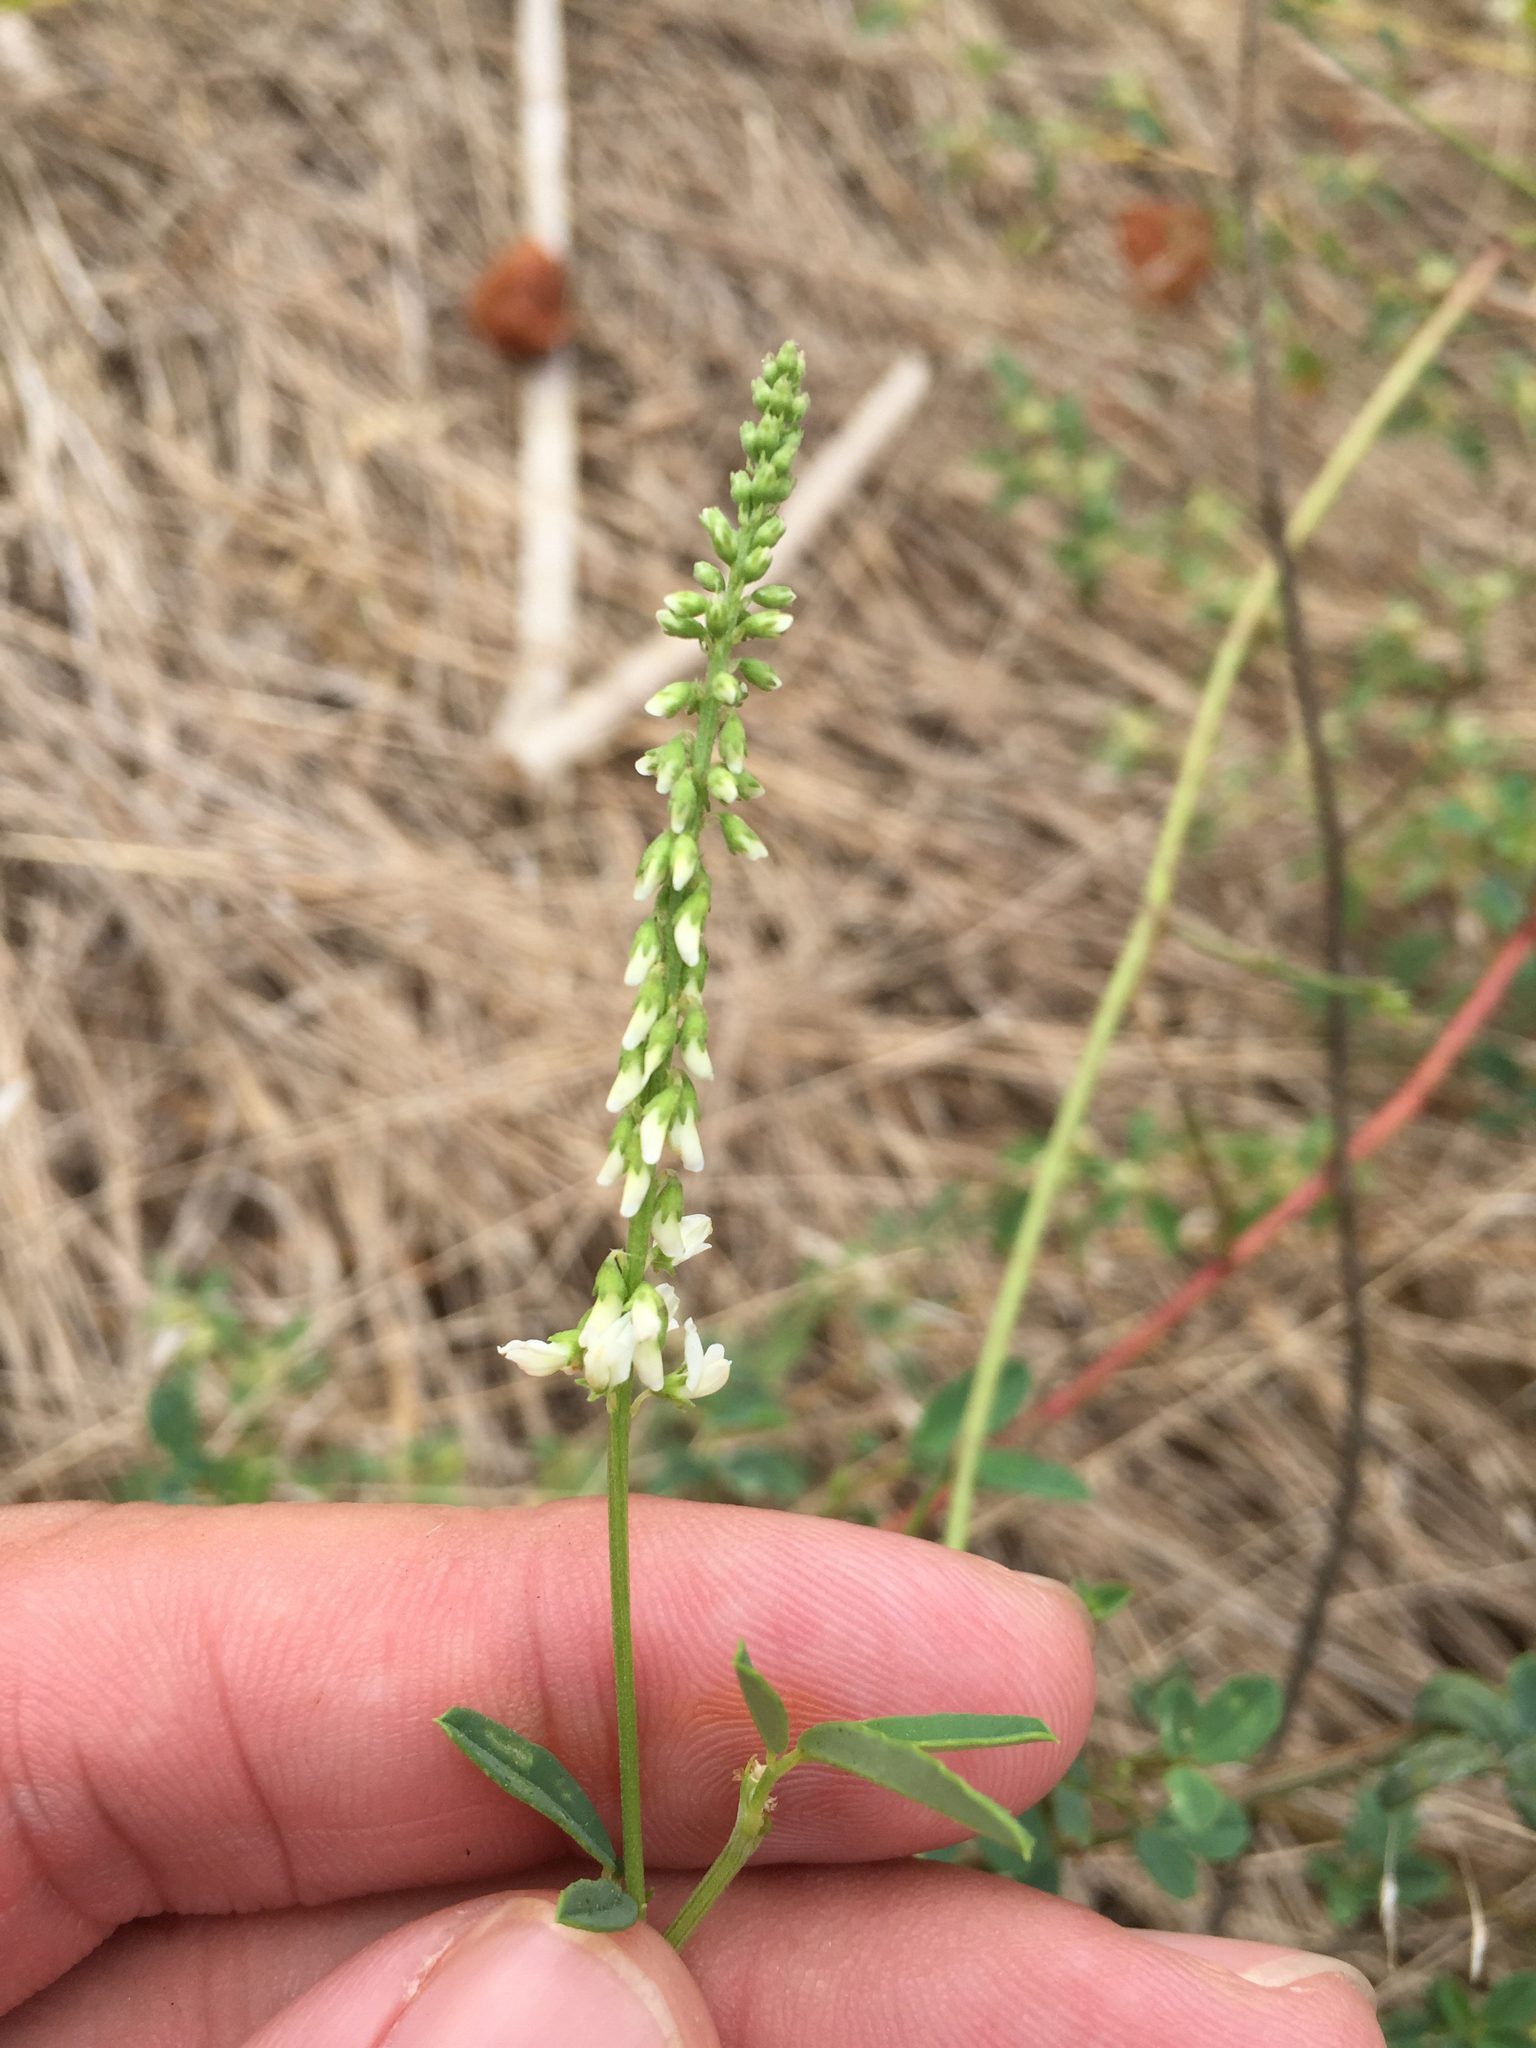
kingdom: Plantae
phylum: Tracheophyta
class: Magnoliopsida
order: Fabales
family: Fabaceae
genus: Melilotus
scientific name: Melilotus albus
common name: White melilot
